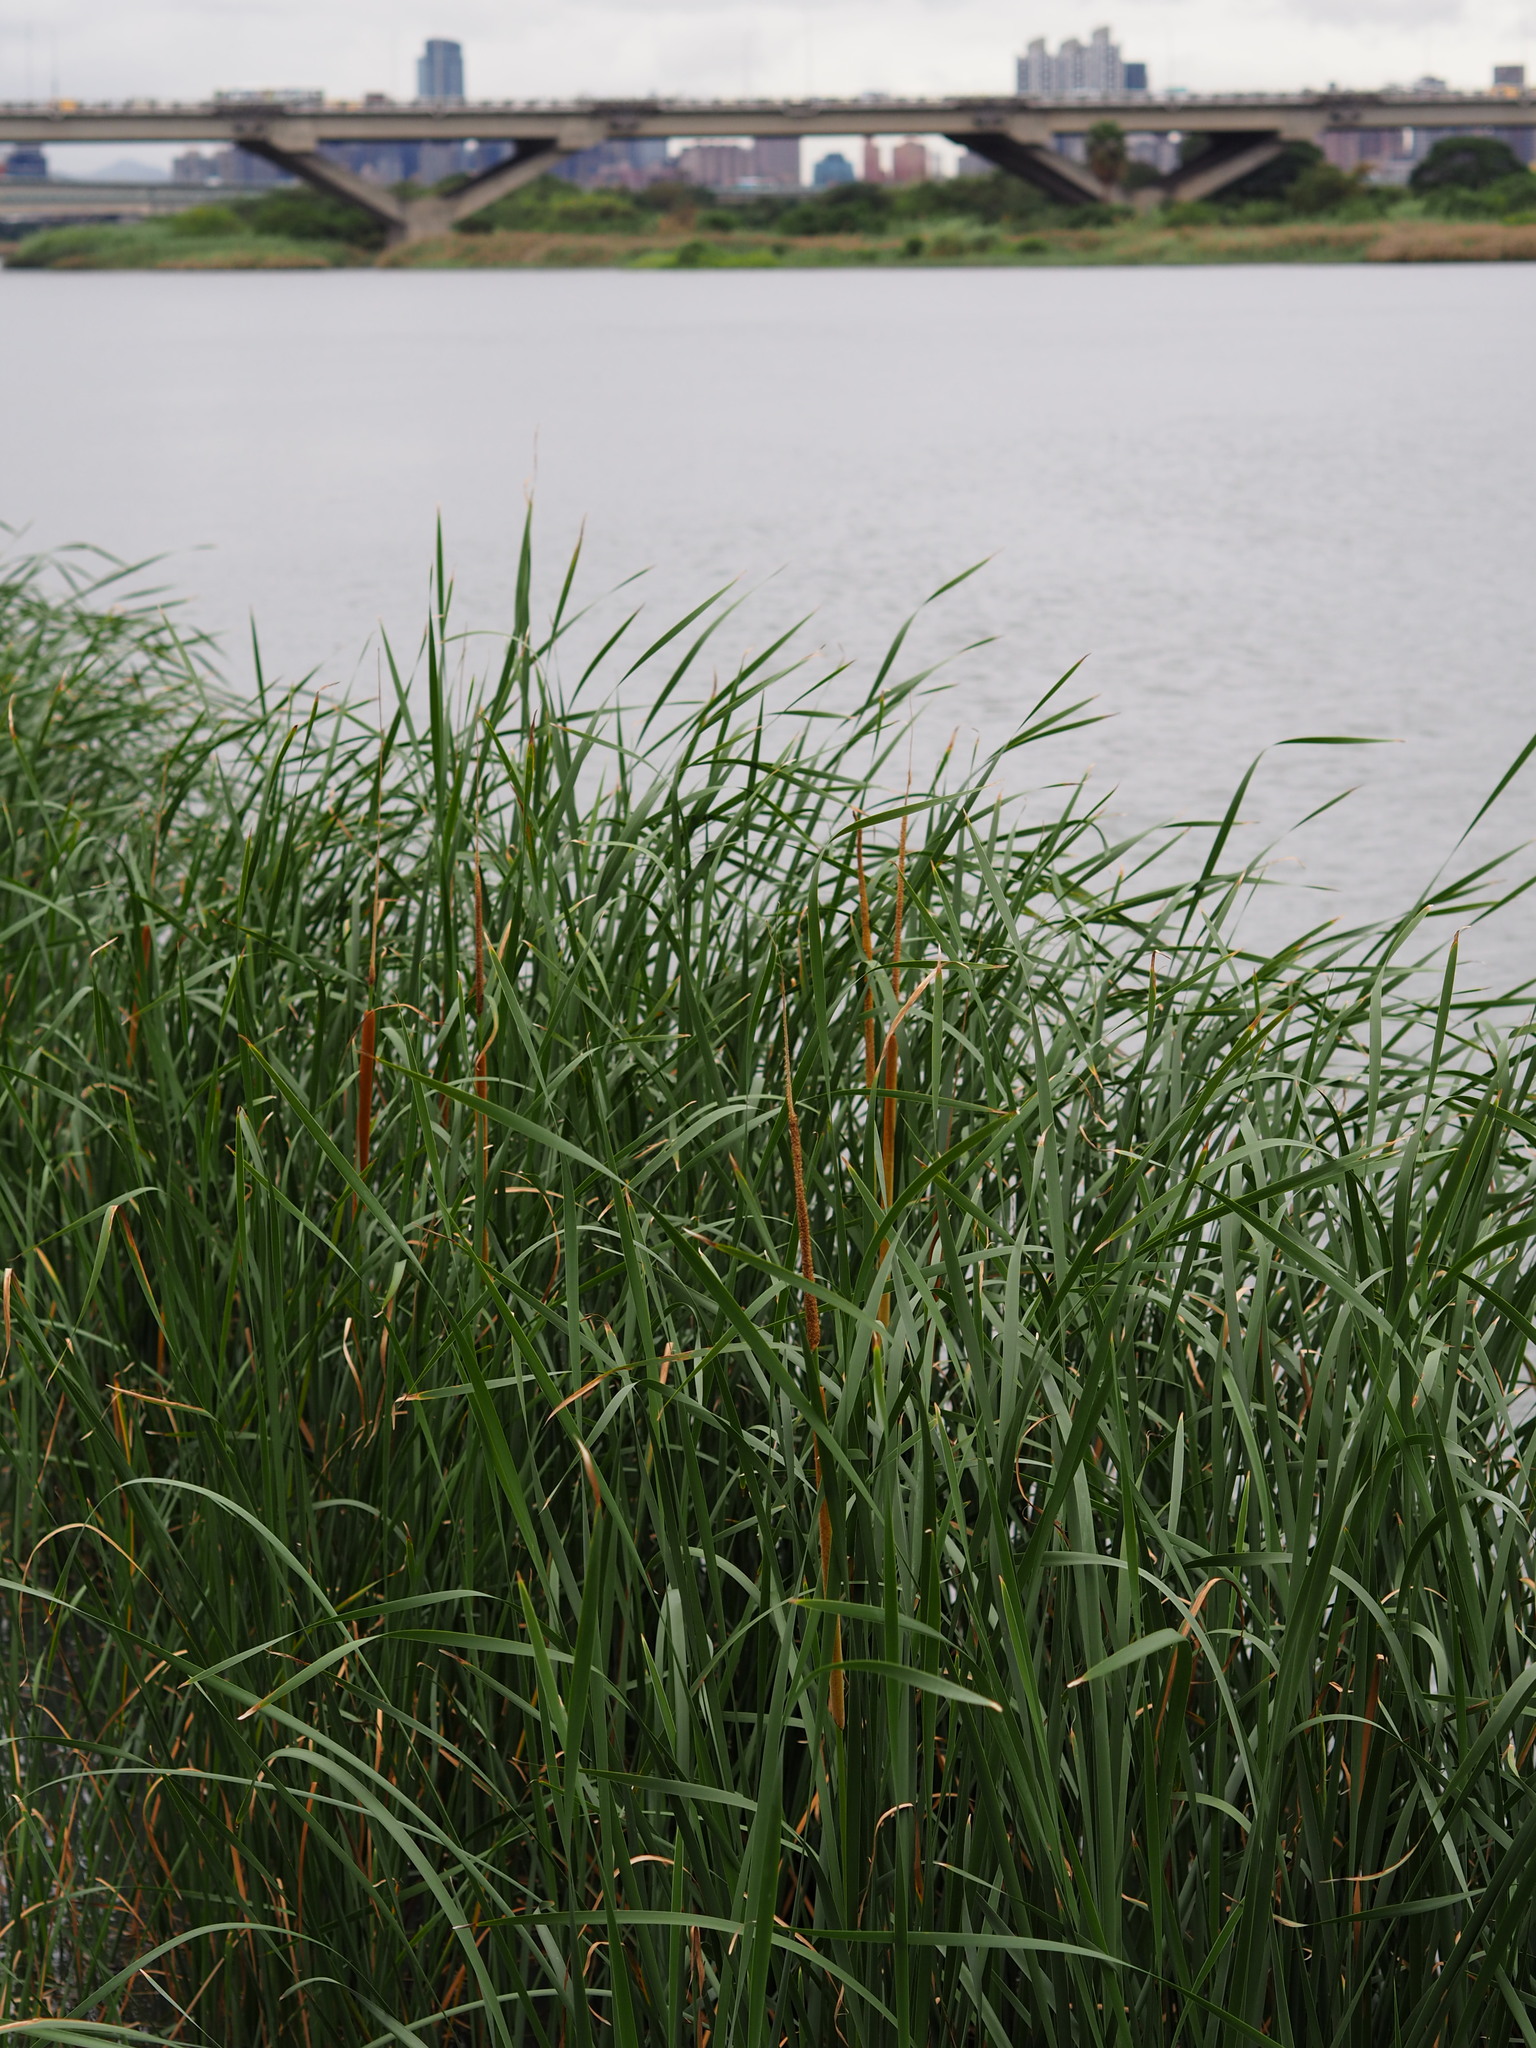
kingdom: Plantae
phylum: Tracheophyta
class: Liliopsida
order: Poales
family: Typhaceae
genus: Typha
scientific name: Typha angustifolia
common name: Lesser bulrush
